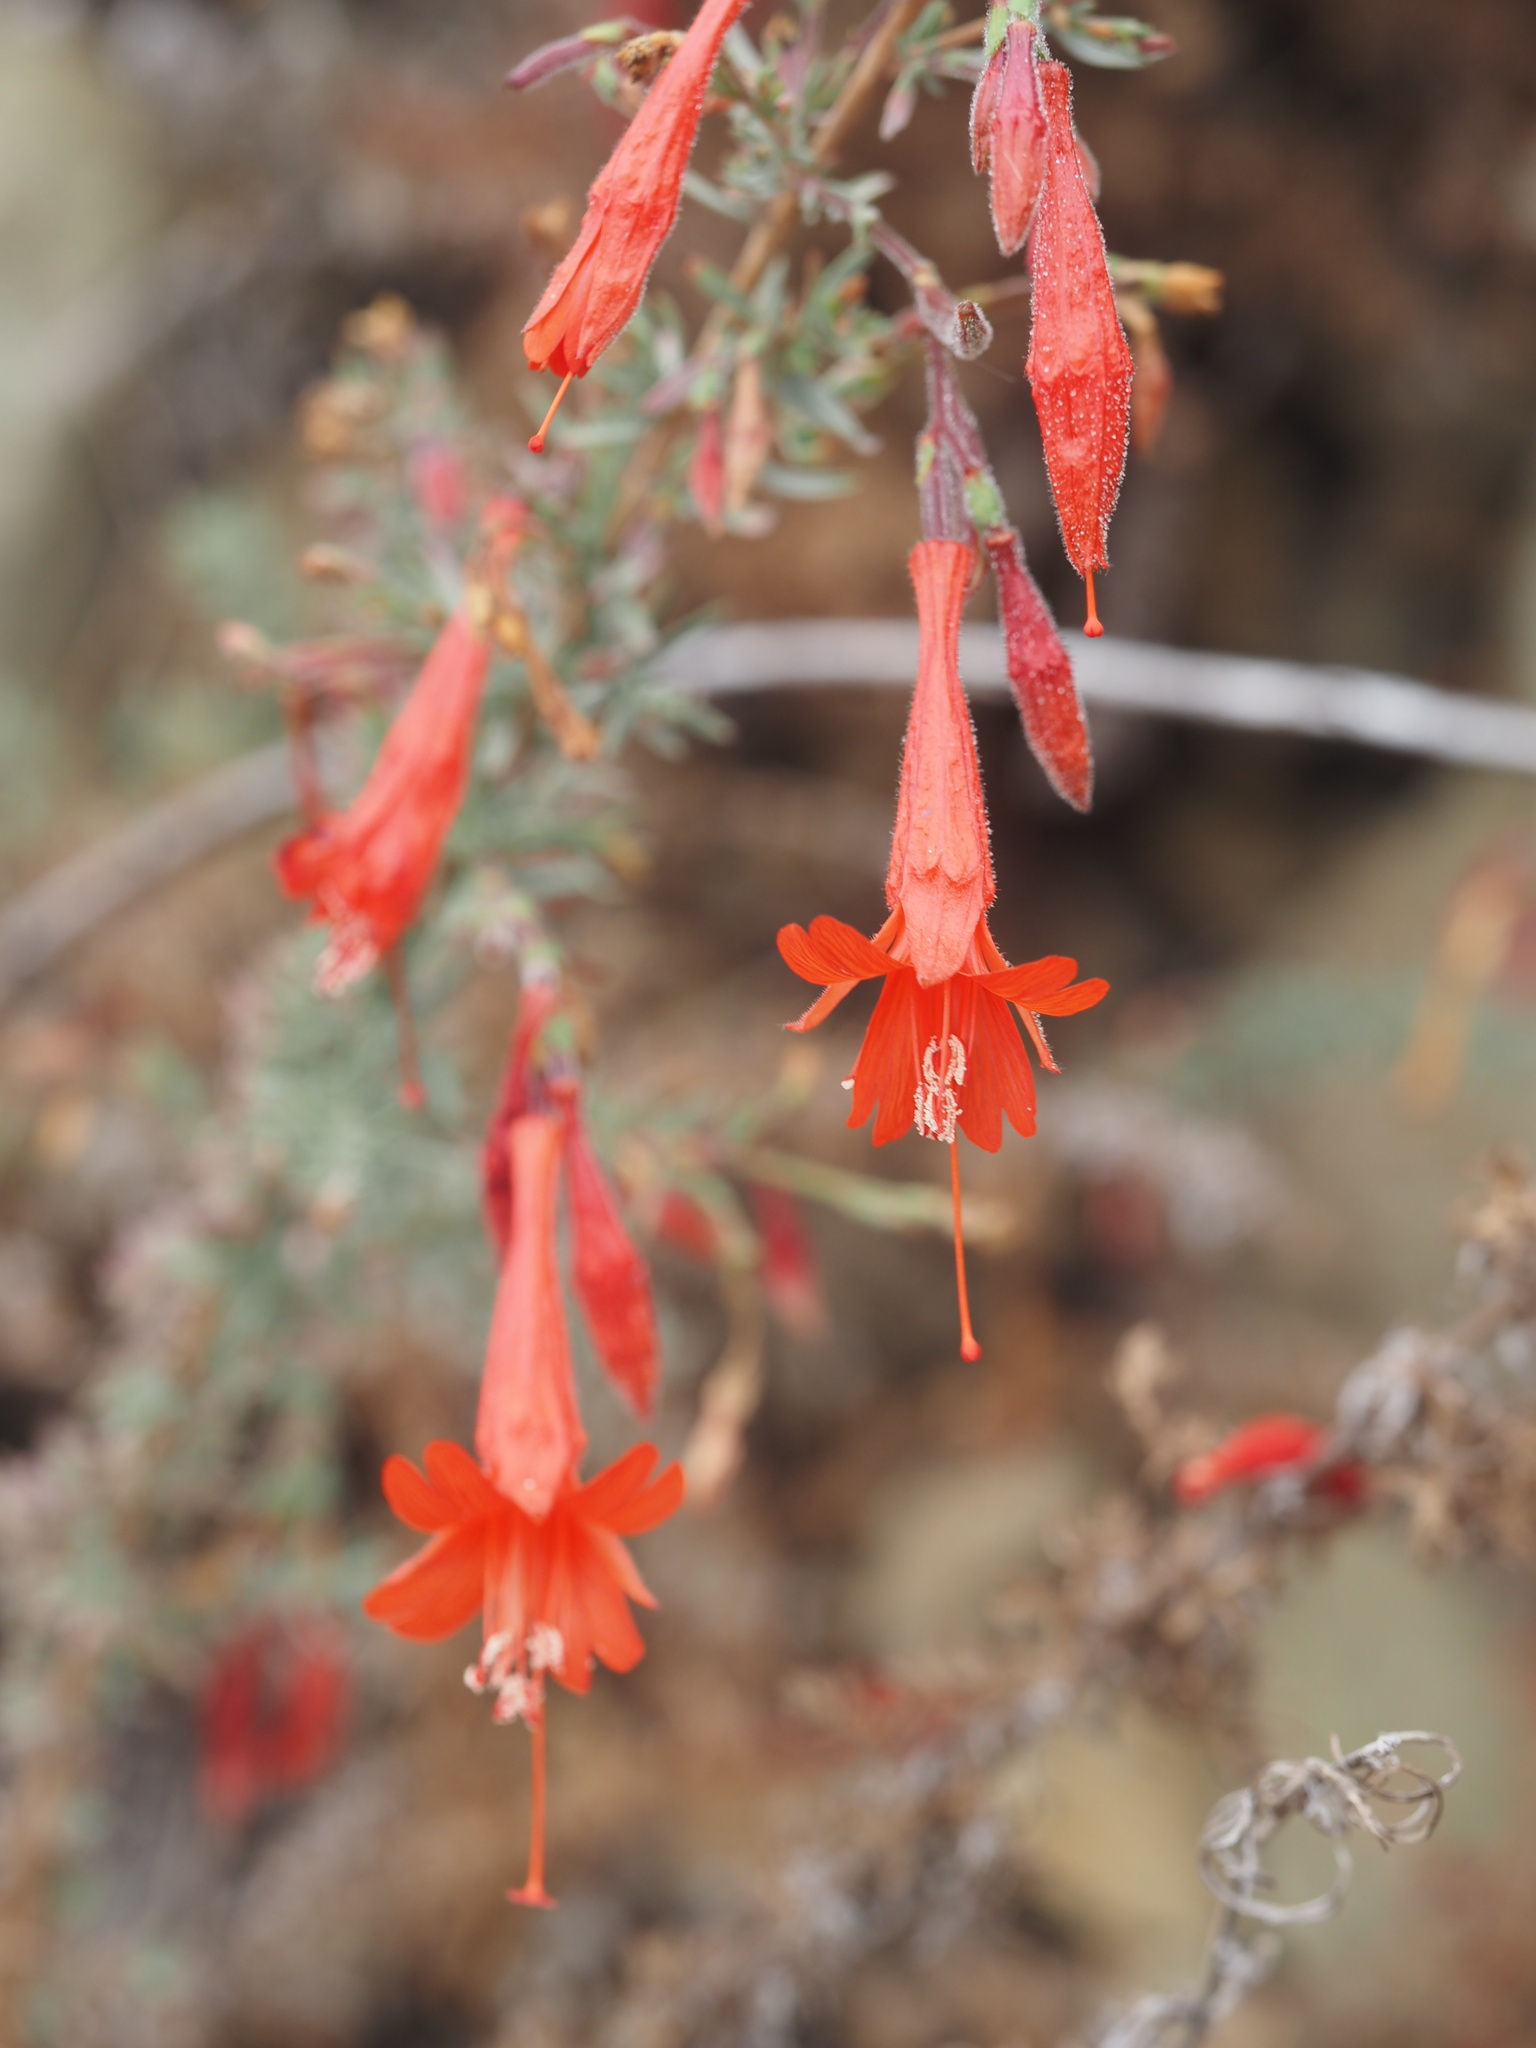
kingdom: Plantae
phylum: Tracheophyta
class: Magnoliopsida
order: Myrtales
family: Onagraceae
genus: Epilobium
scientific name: Epilobium canum
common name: California-fuchsia
